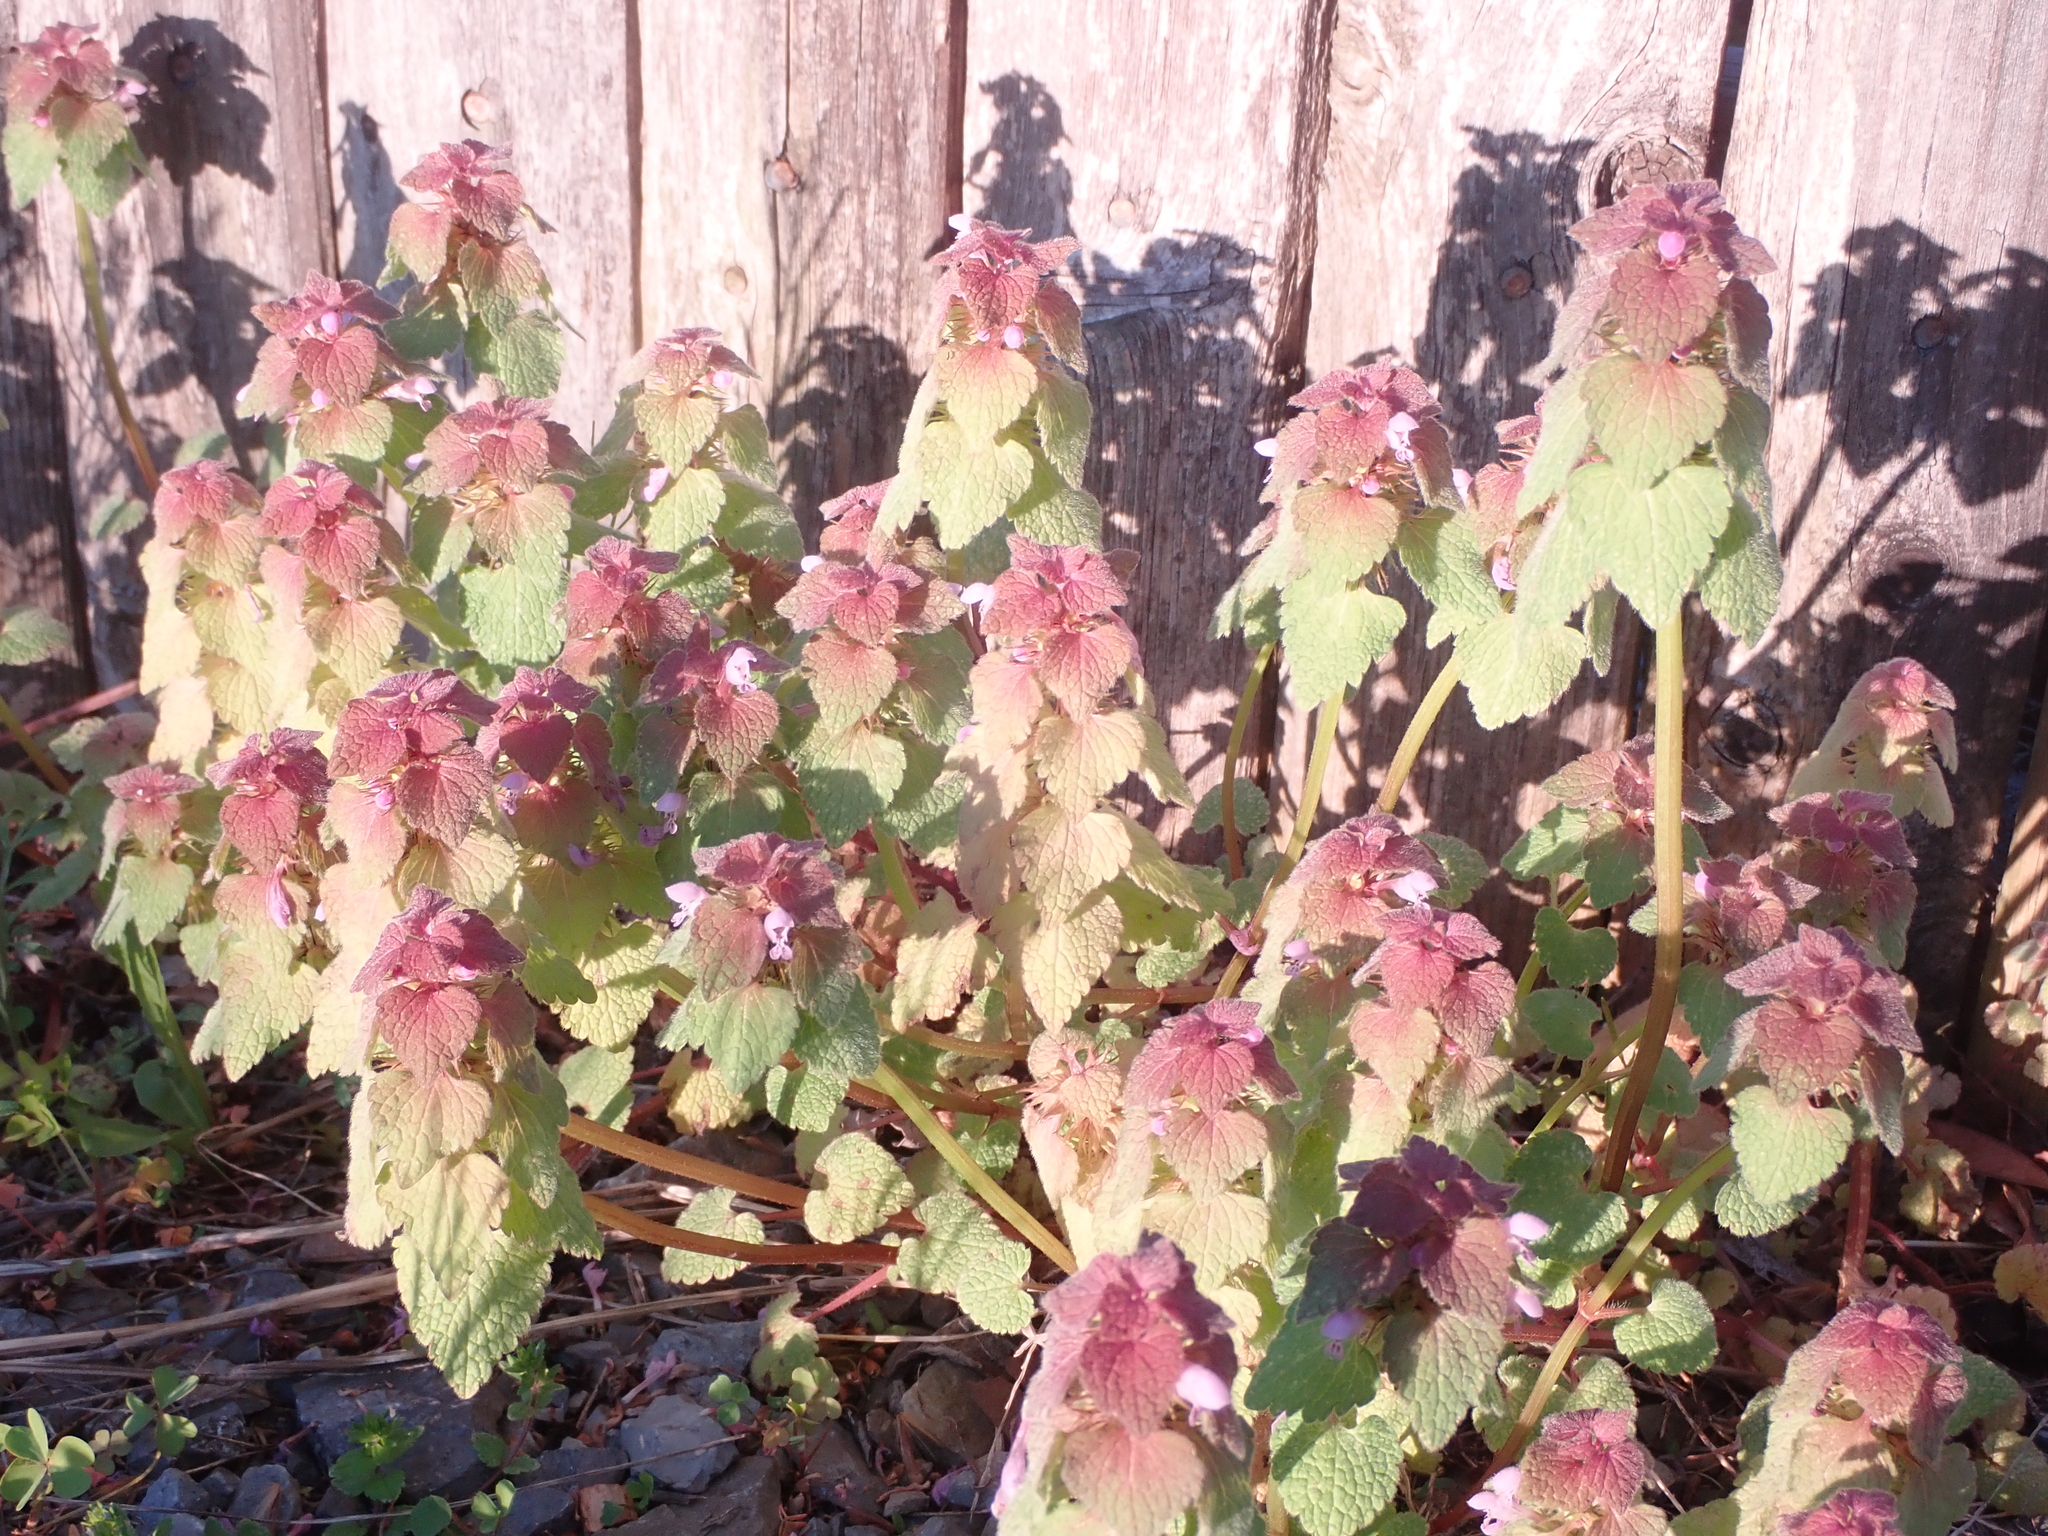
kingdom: Plantae
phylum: Tracheophyta
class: Magnoliopsida
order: Lamiales
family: Lamiaceae
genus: Lamium
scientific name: Lamium purpureum
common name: Red dead-nettle
